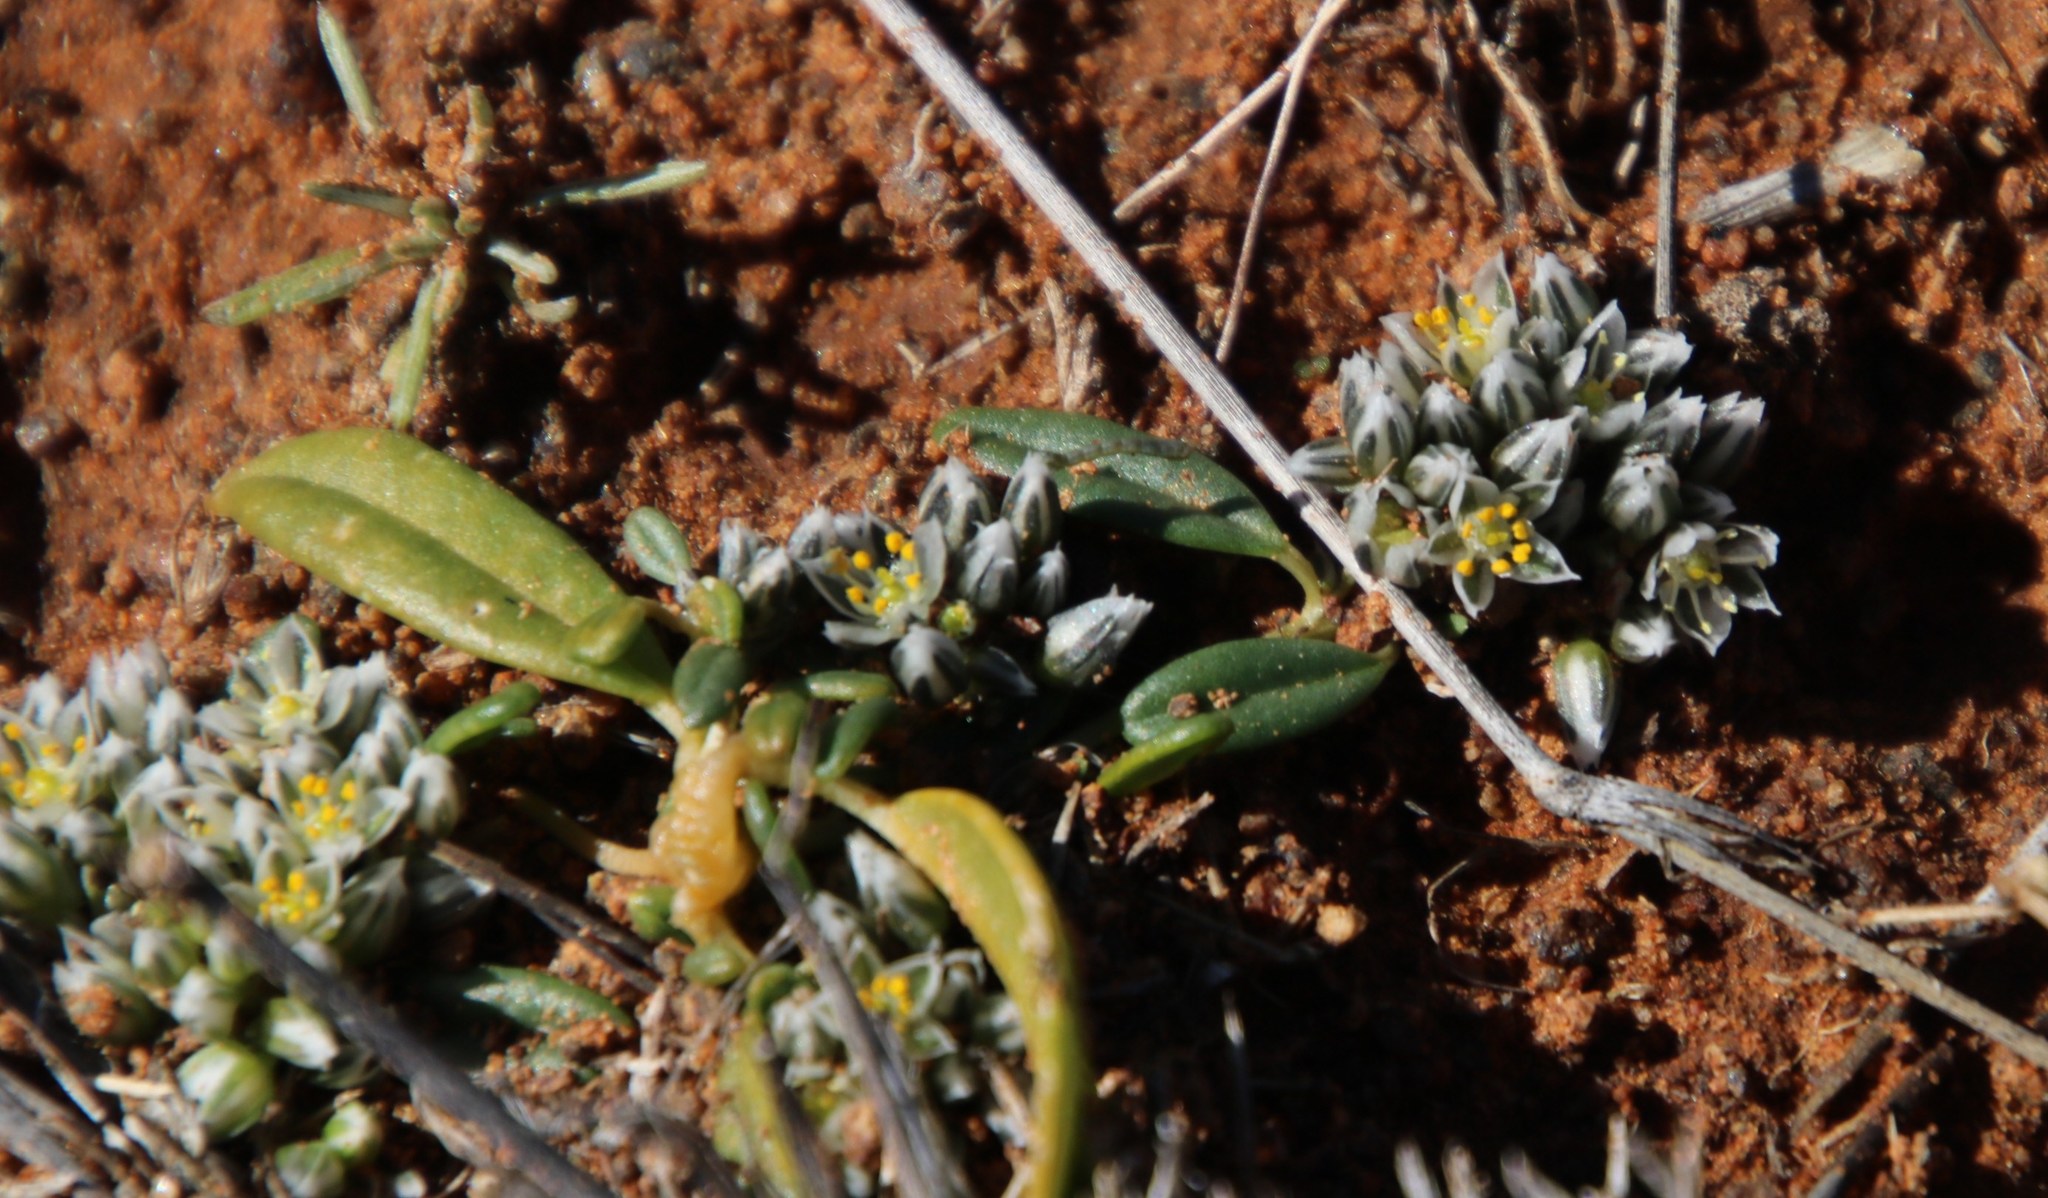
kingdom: Plantae
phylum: Tracheophyta
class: Magnoliopsida
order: Caryophyllales
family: Limeaceae
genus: Limeum
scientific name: Limeum arenicolum
